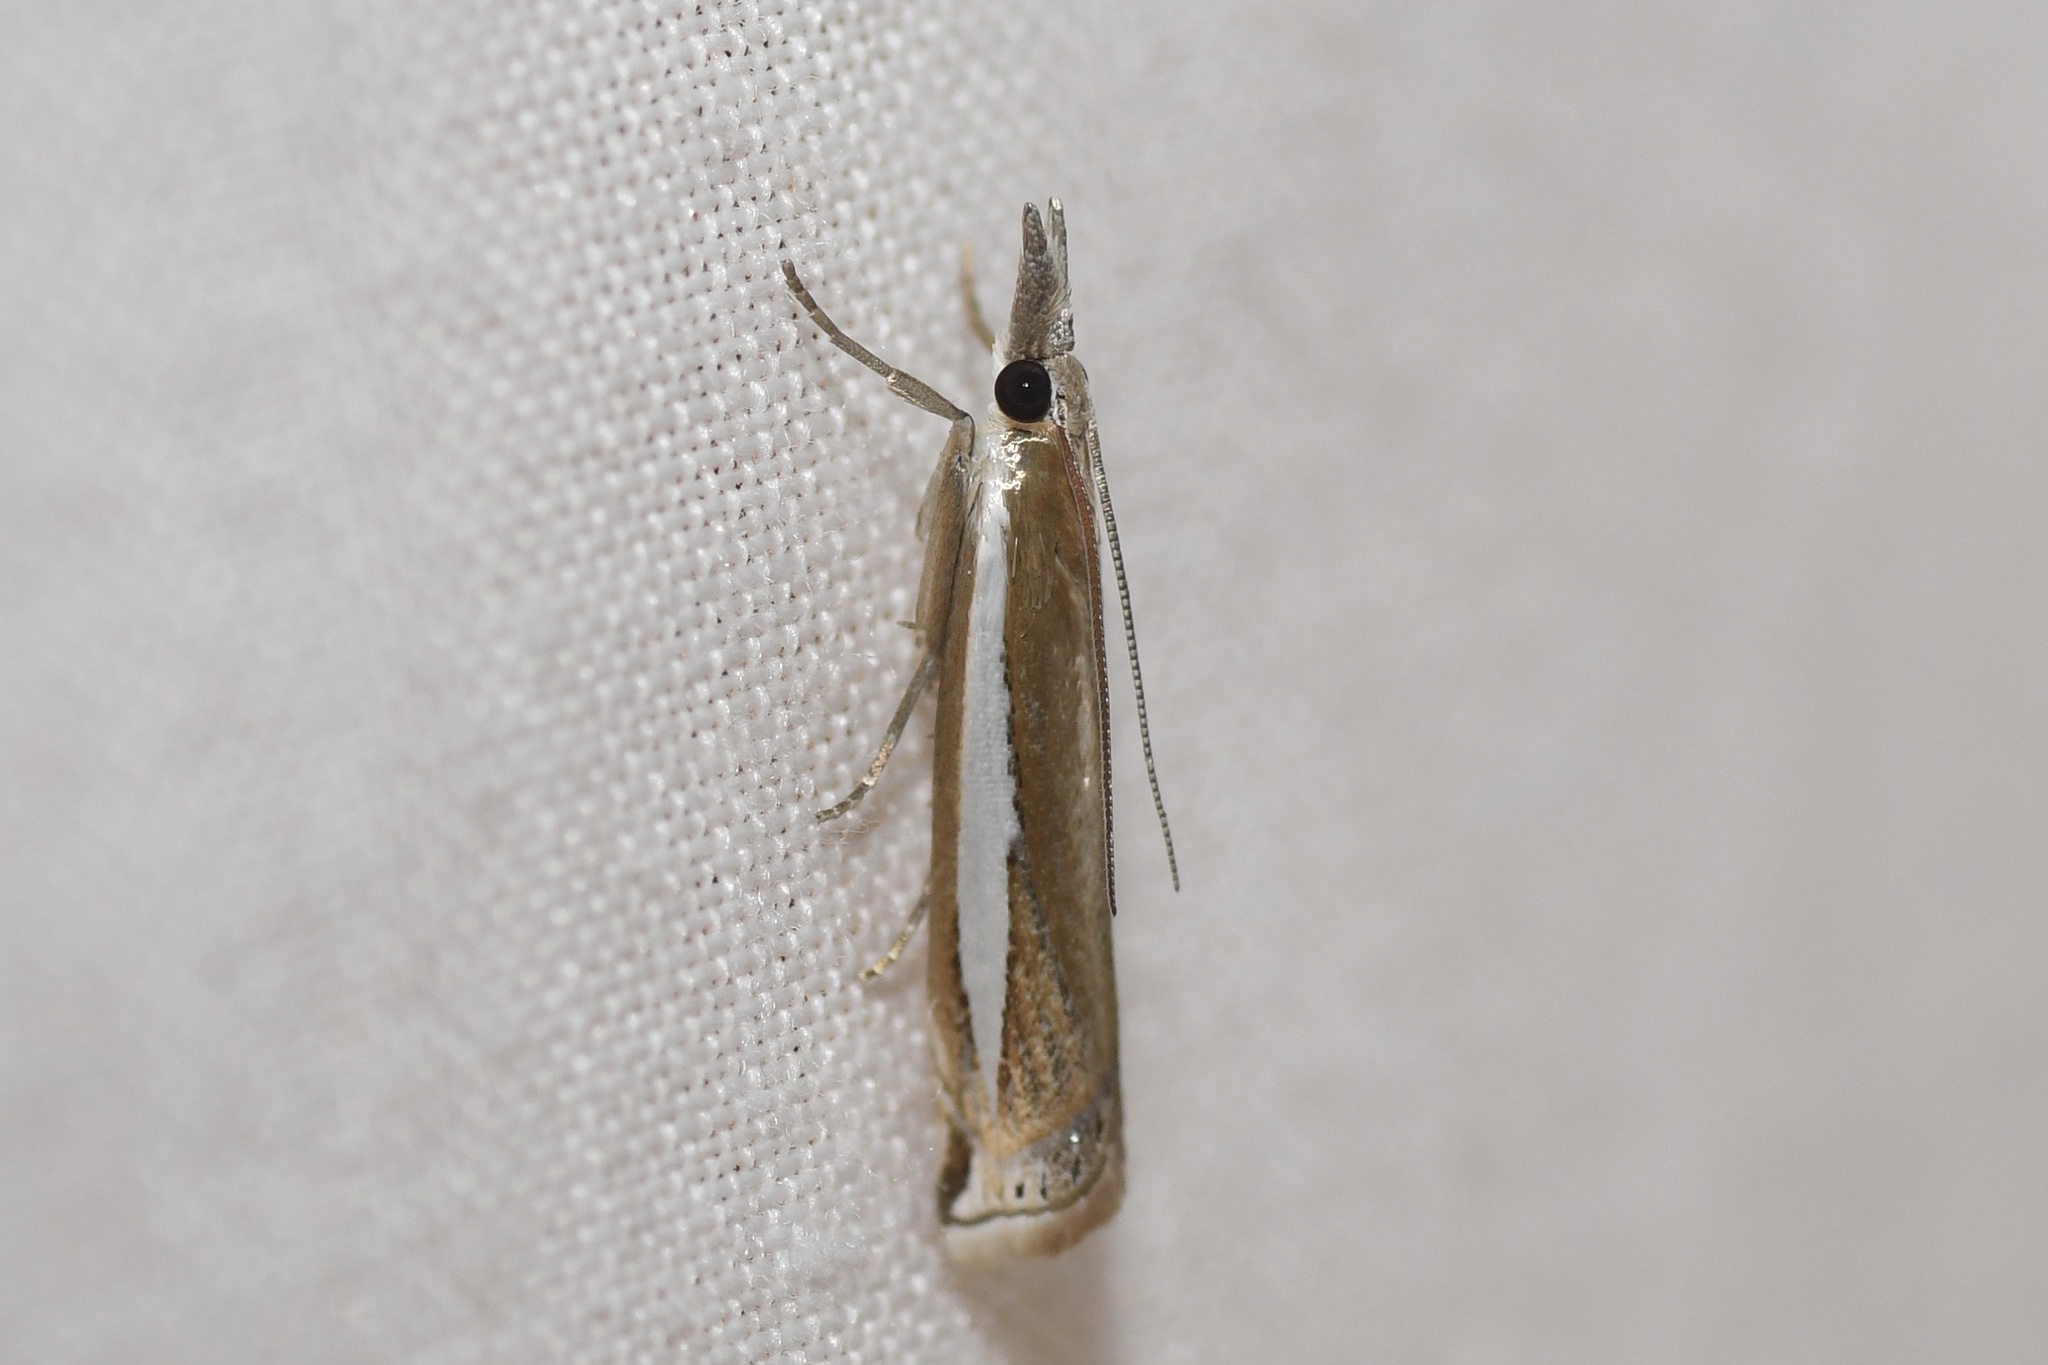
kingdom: Animalia
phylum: Arthropoda
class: Insecta
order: Lepidoptera
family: Crambidae
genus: Crambus
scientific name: Crambus praefectellus
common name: Common grass-veneer
